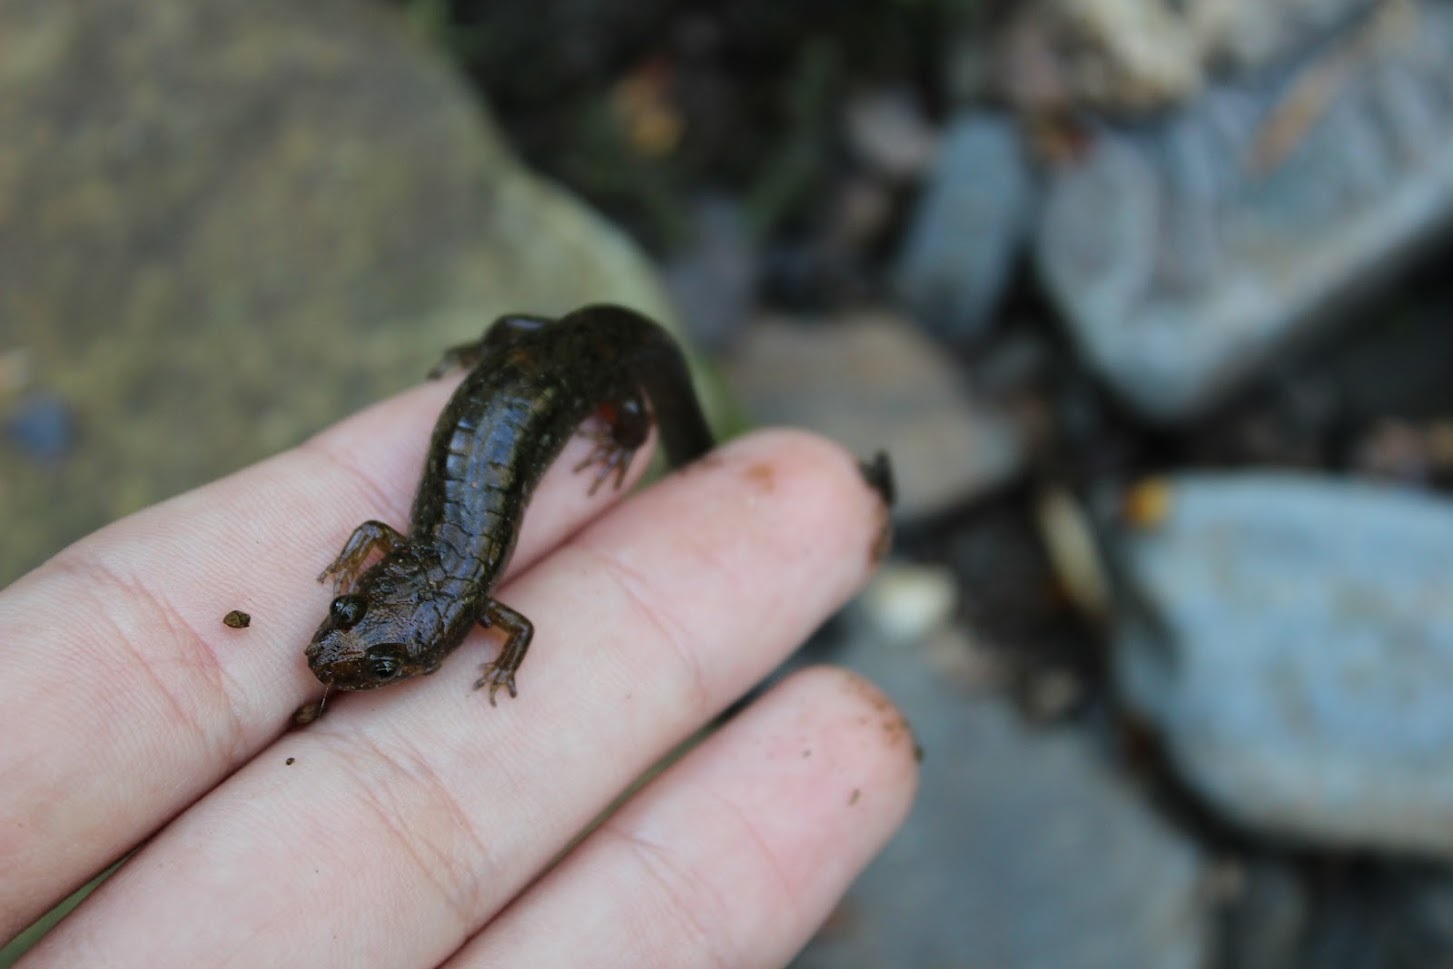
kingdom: Animalia
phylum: Chordata
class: Amphibia
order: Caudata
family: Plethodontidae
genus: Desmognathus
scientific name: Desmognathus monticola
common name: Seal salamander
